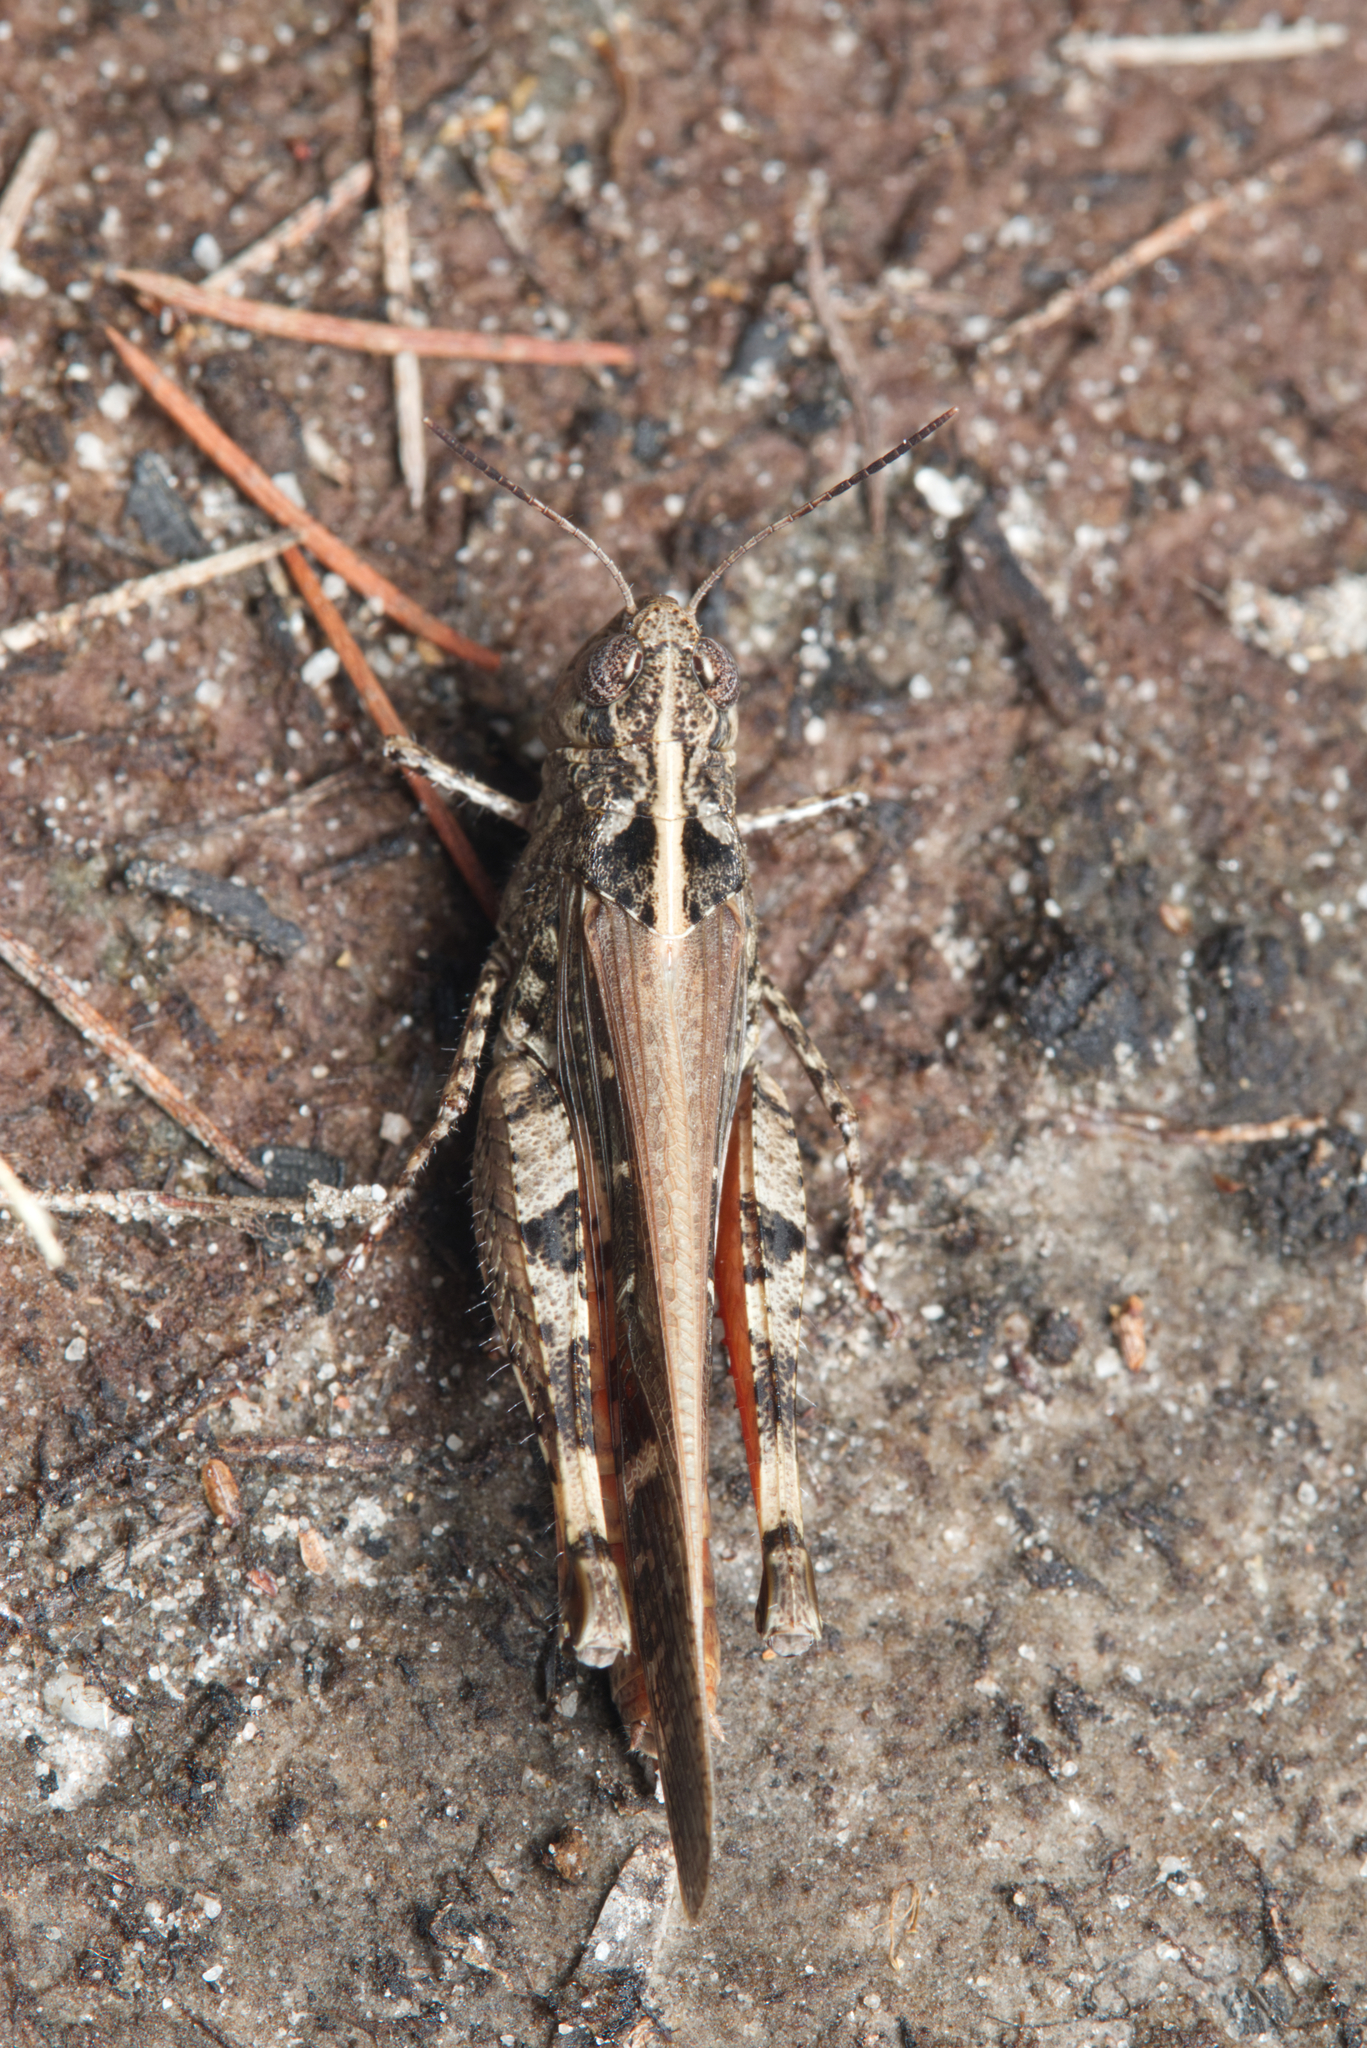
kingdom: Animalia
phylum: Arthropoda
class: Insecta
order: Orthoptera
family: Acrididae
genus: Heteropternis
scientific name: Heteropternis obscurella
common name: Long-legged bandwing
